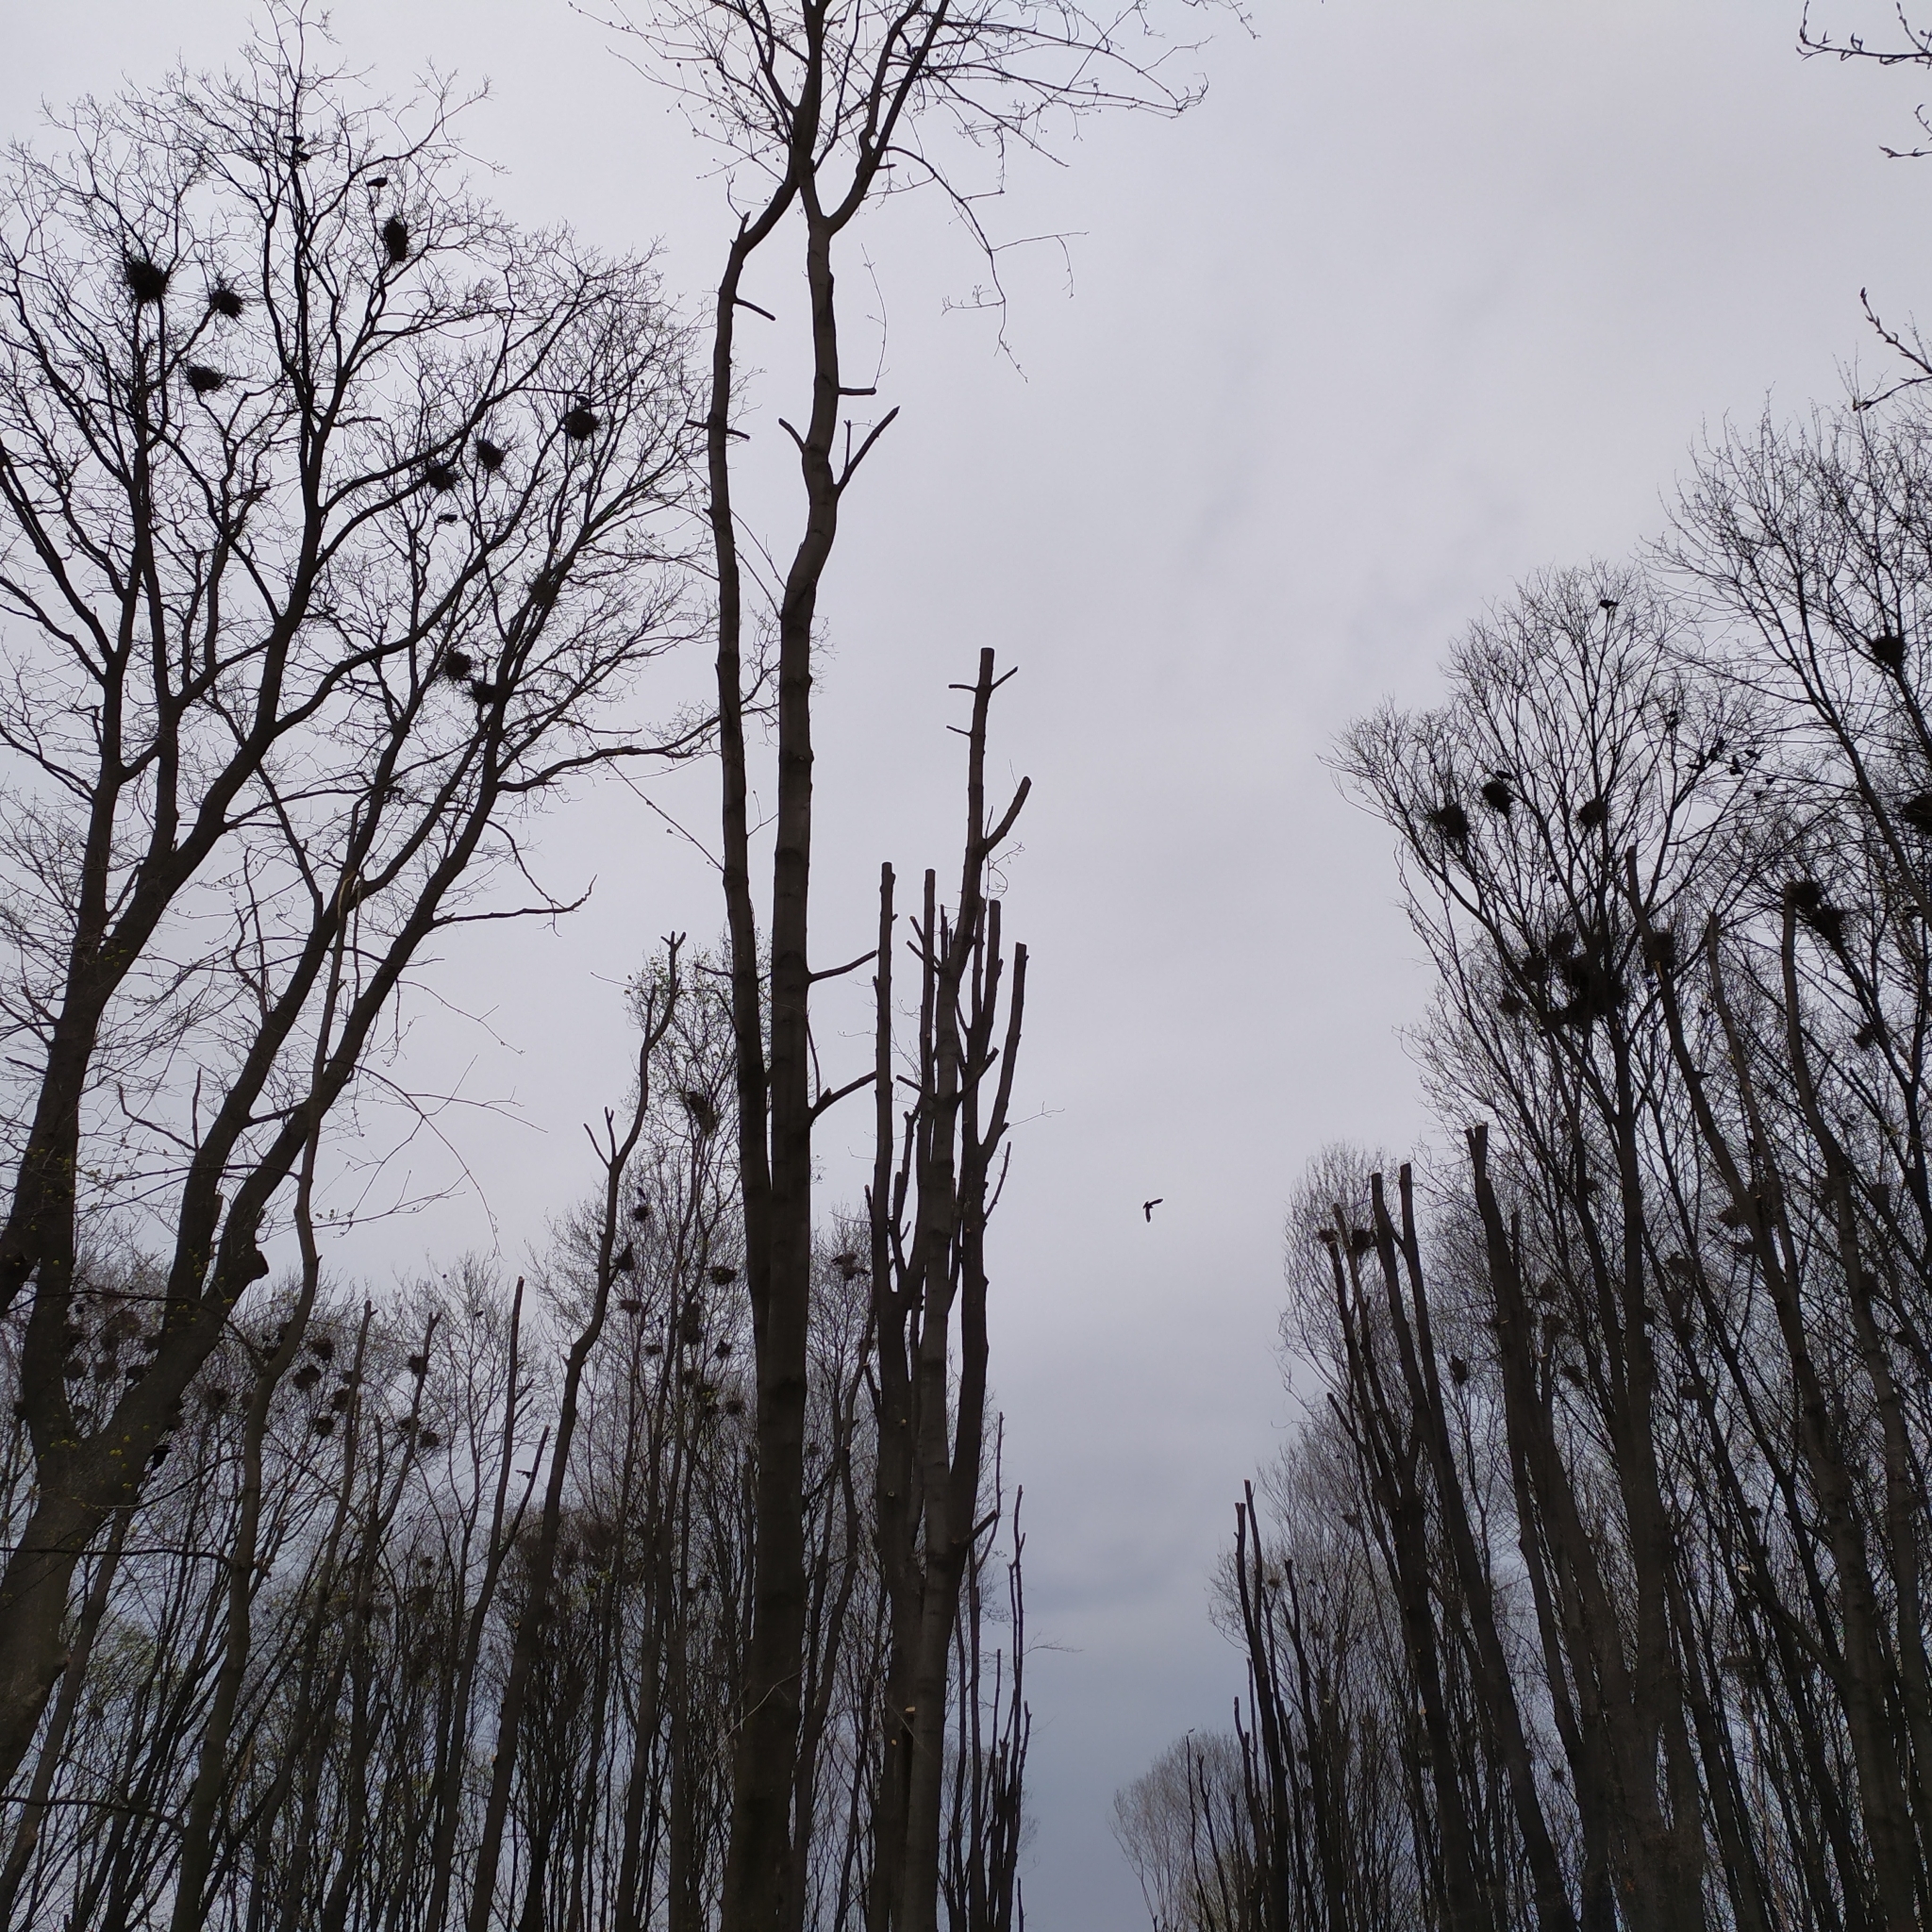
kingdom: Animalia
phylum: Chordata
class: Aves
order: Passeriformes
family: Corvidae
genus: Corvus
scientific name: Corvus frugilegus
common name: Rook
